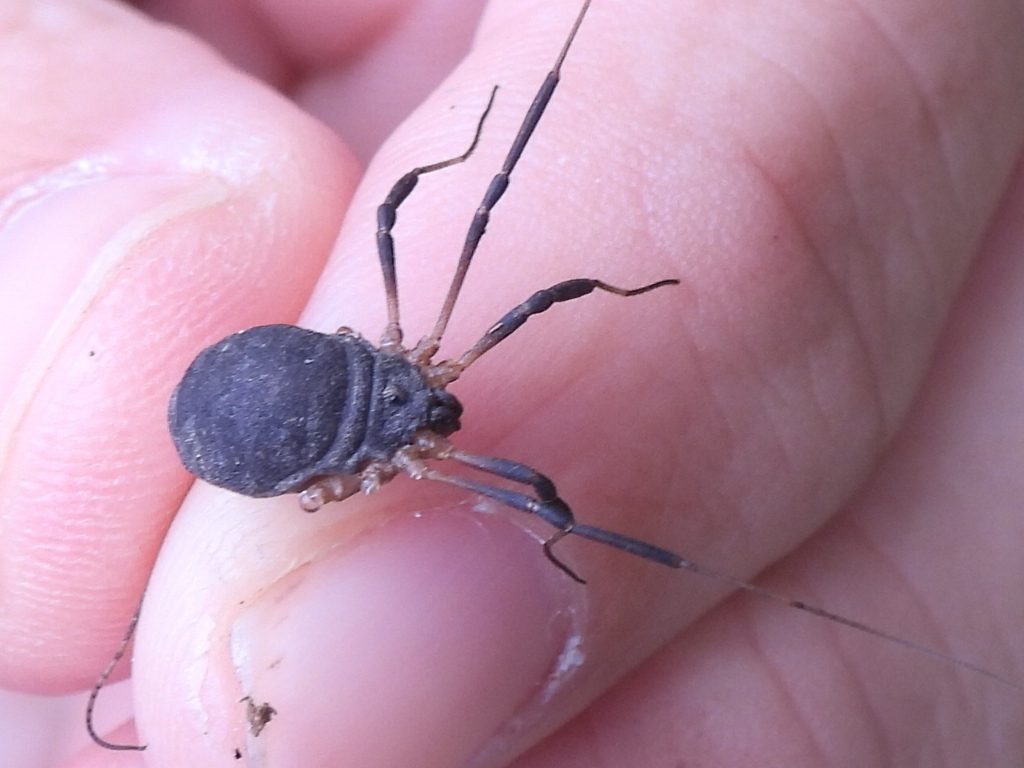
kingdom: Animalia
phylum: Arthropoda
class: Arachnida
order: Opiliones
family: Sclerosomatidae
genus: Eumesosoma
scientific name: Eumesosoma roeweri
